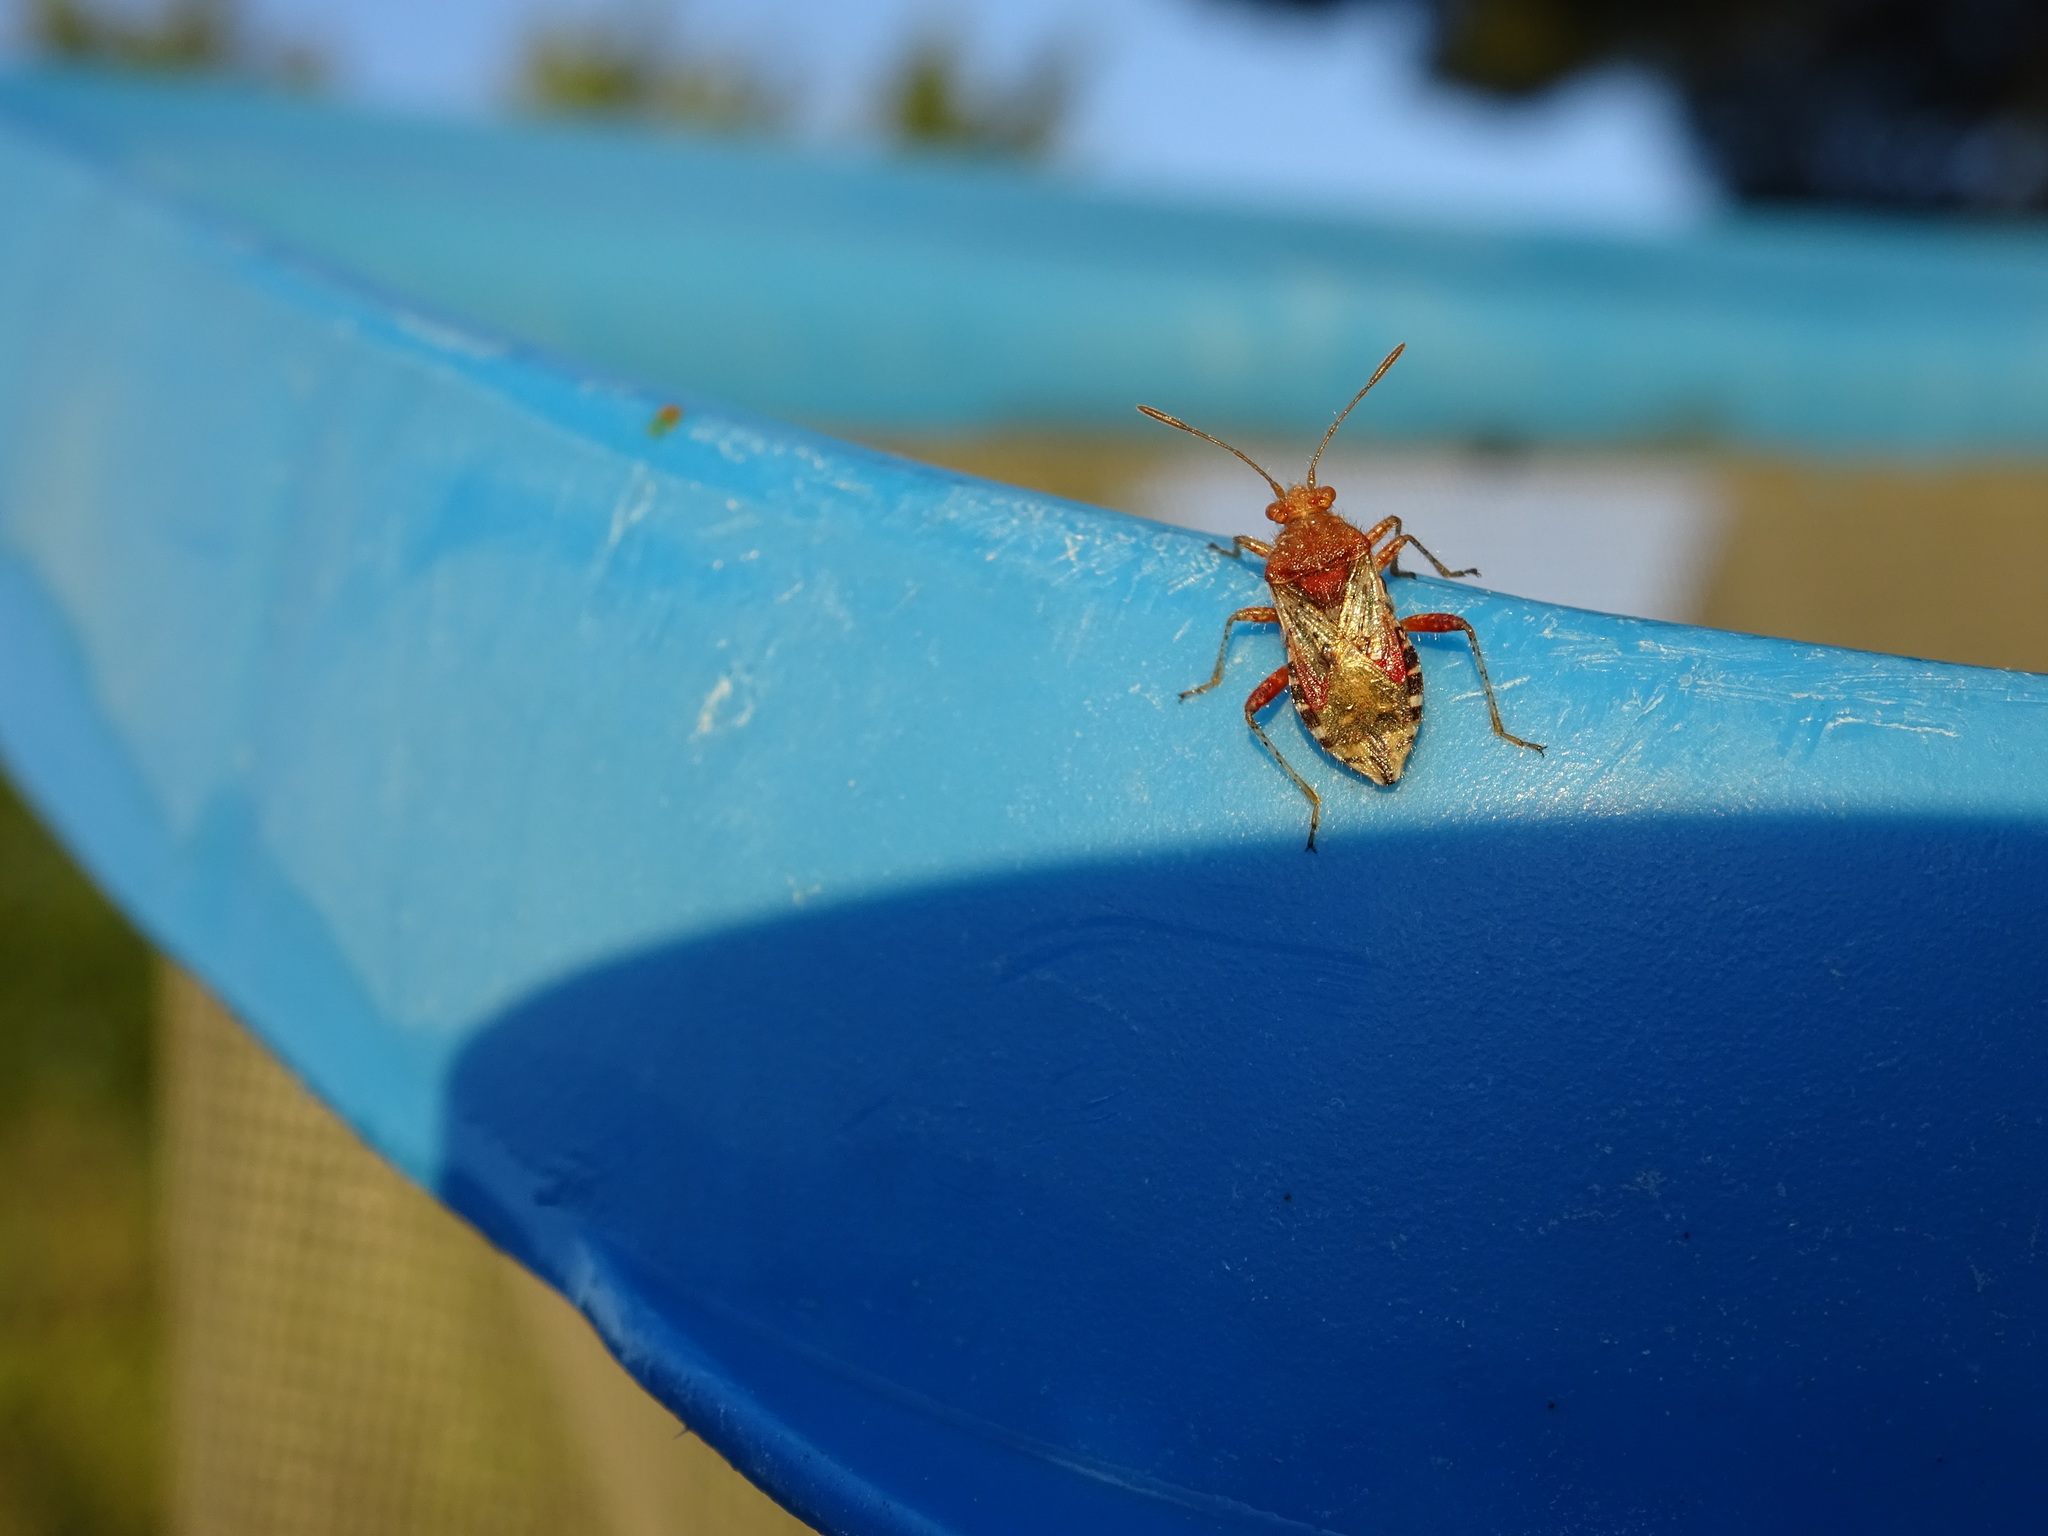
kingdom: Animalia
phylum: Arthropoda
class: Insecta
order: Hemiptera
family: Rhopalidae
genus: Rhopalus
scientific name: Rhopalus subrufus
